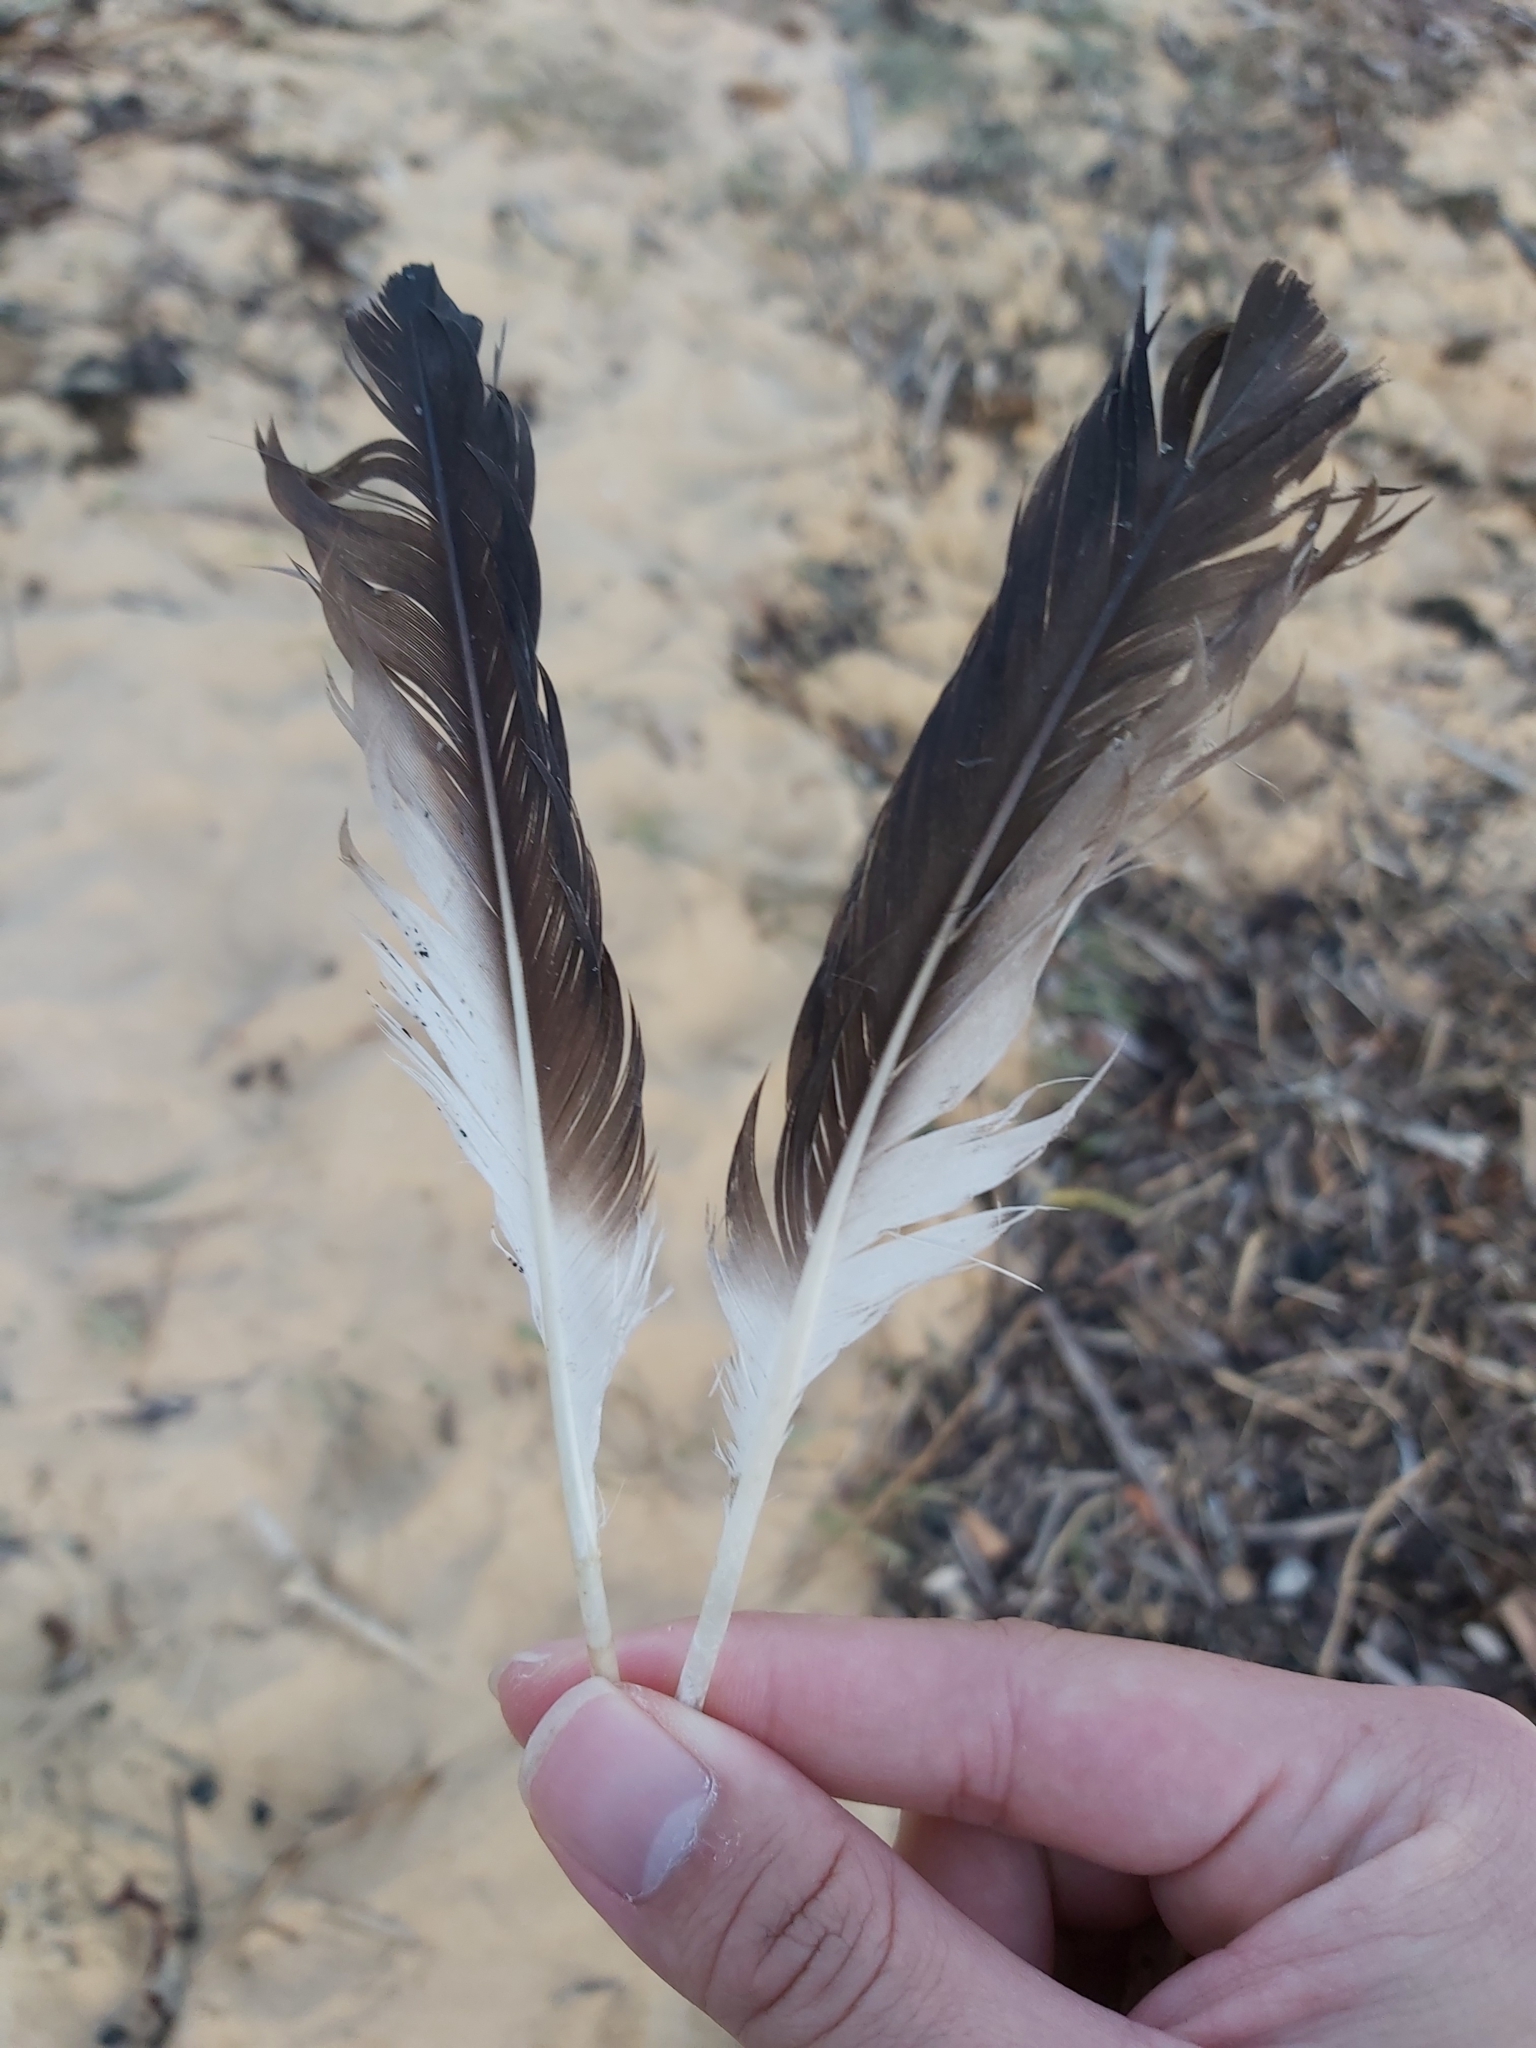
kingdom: Animalia
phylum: Chordata
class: Aves
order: Suliformes
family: Sulidae
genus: Morus
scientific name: Morus serrator
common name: Australasian gannet
